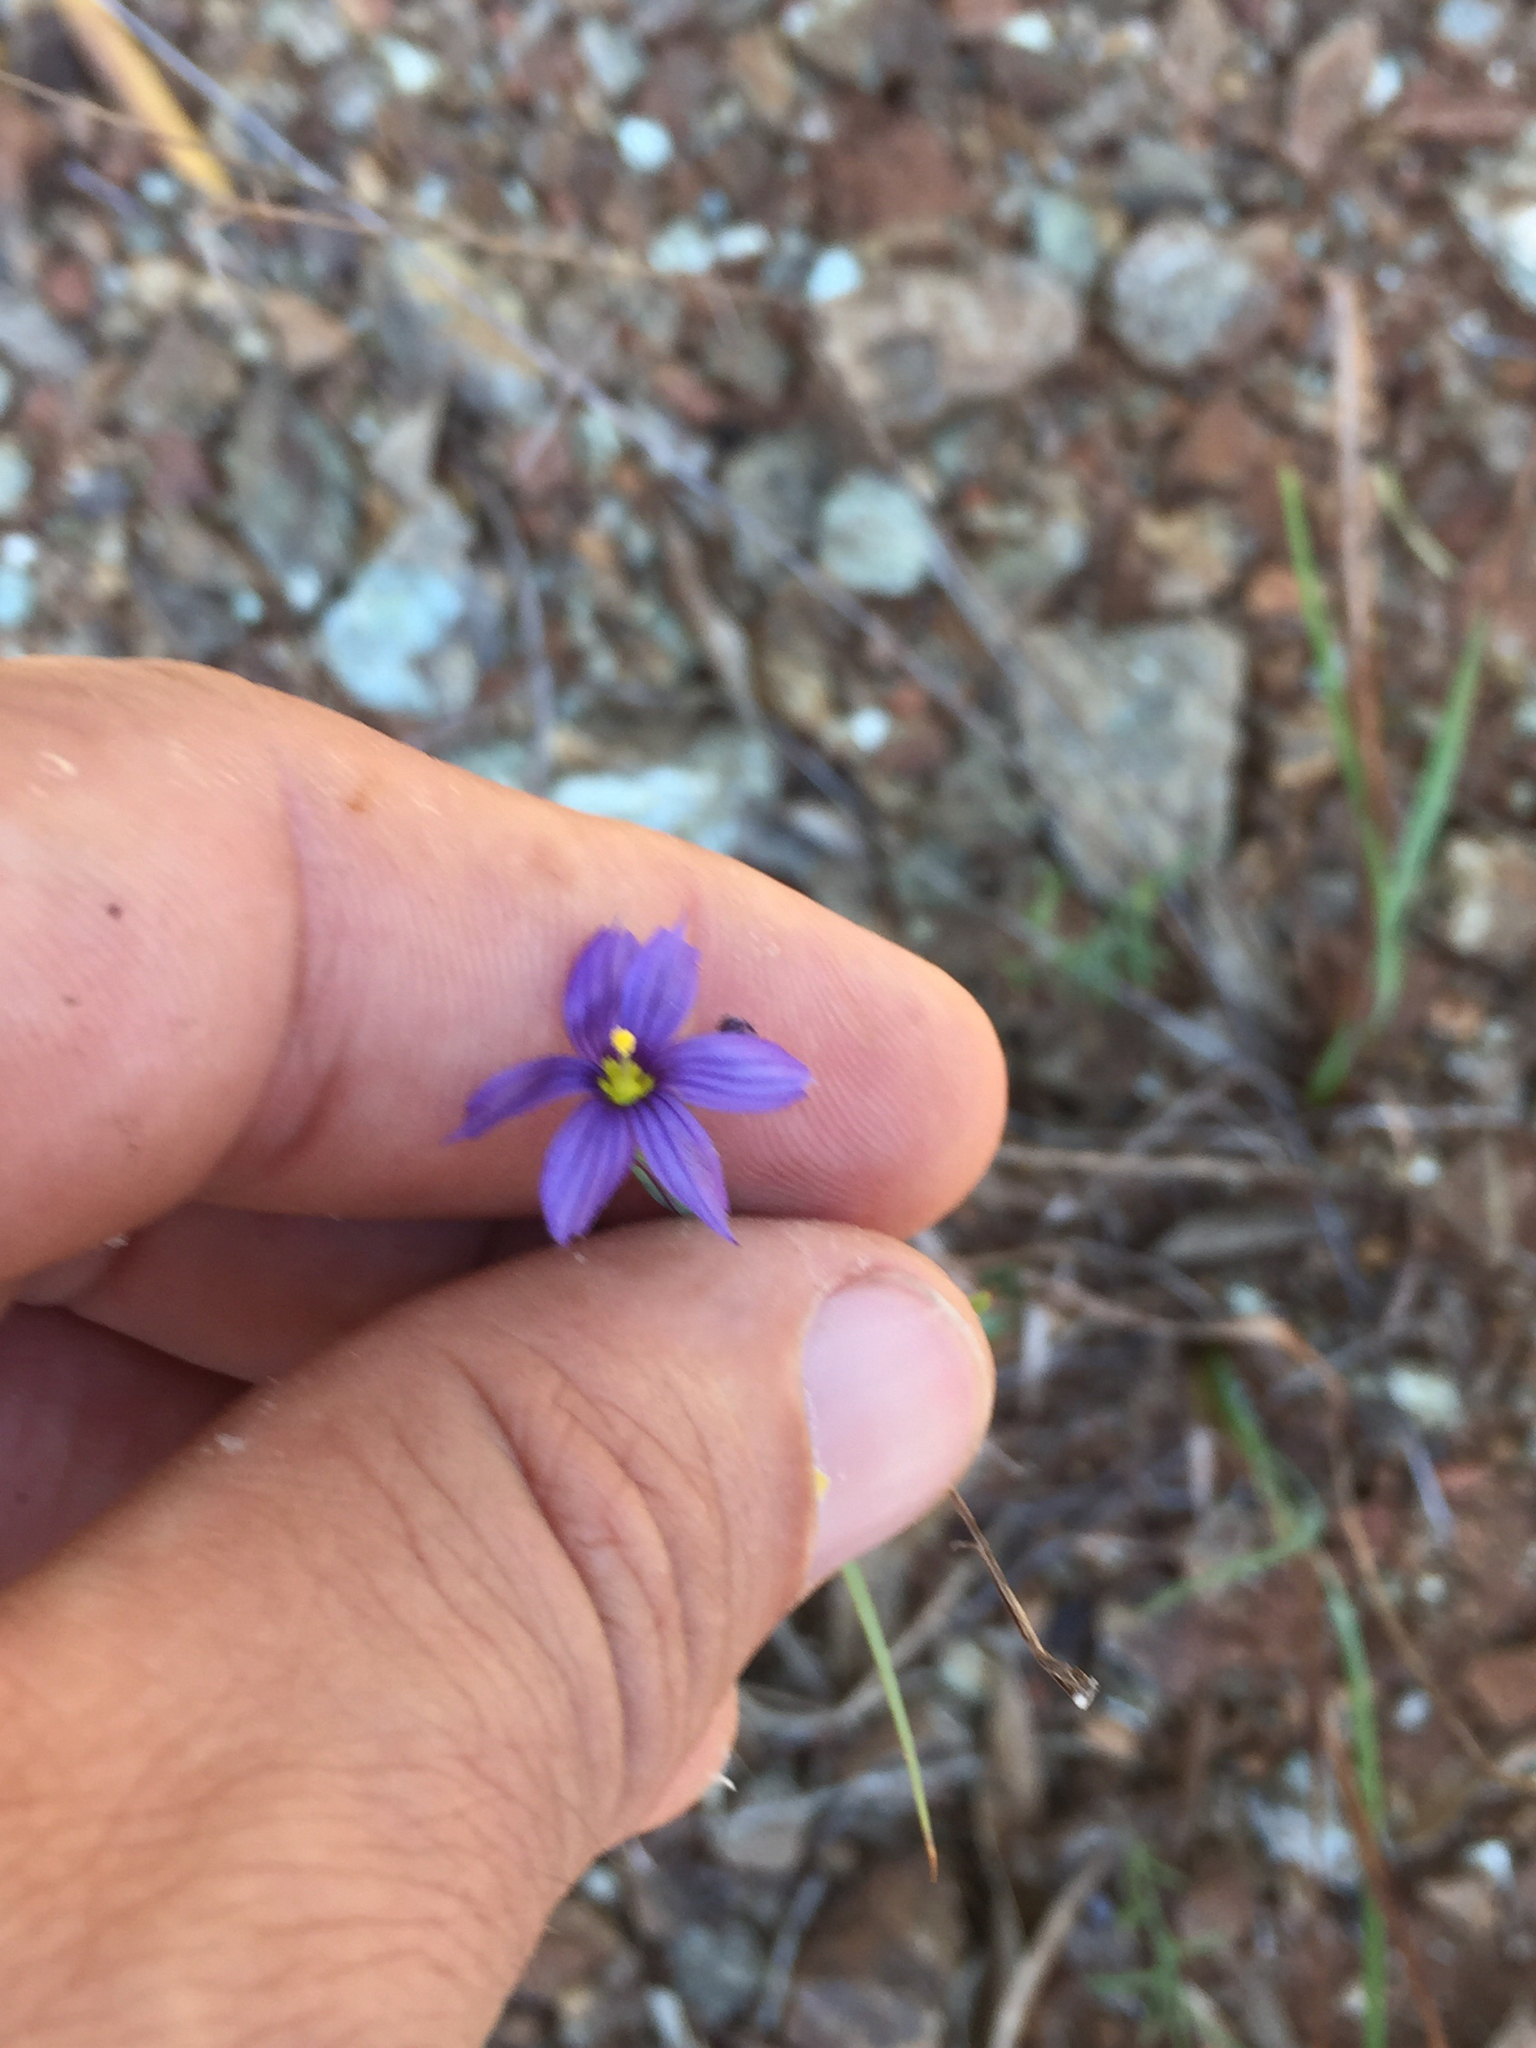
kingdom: Plantae
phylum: Tracheophyta
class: Liliopsida
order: Asparagales
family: Iridaceae
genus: Sisyrinchium
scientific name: Sisyrinchium bellum
